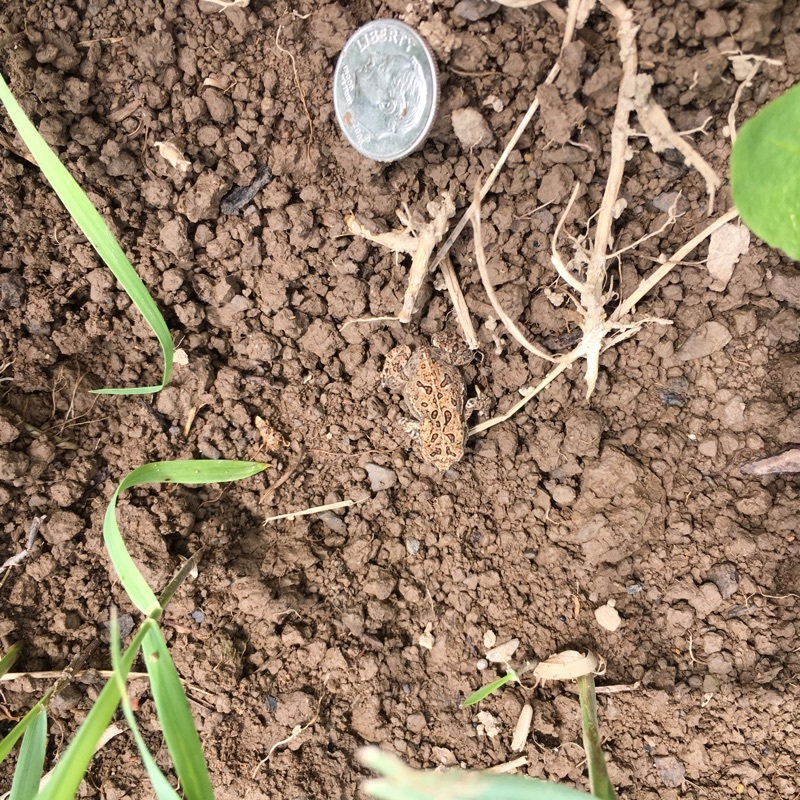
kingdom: Animalia
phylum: Chordata
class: Amphibia
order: Anura
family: Bufonidae
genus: Anaxyrus
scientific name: Anaxyrus americanus
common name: American toad
